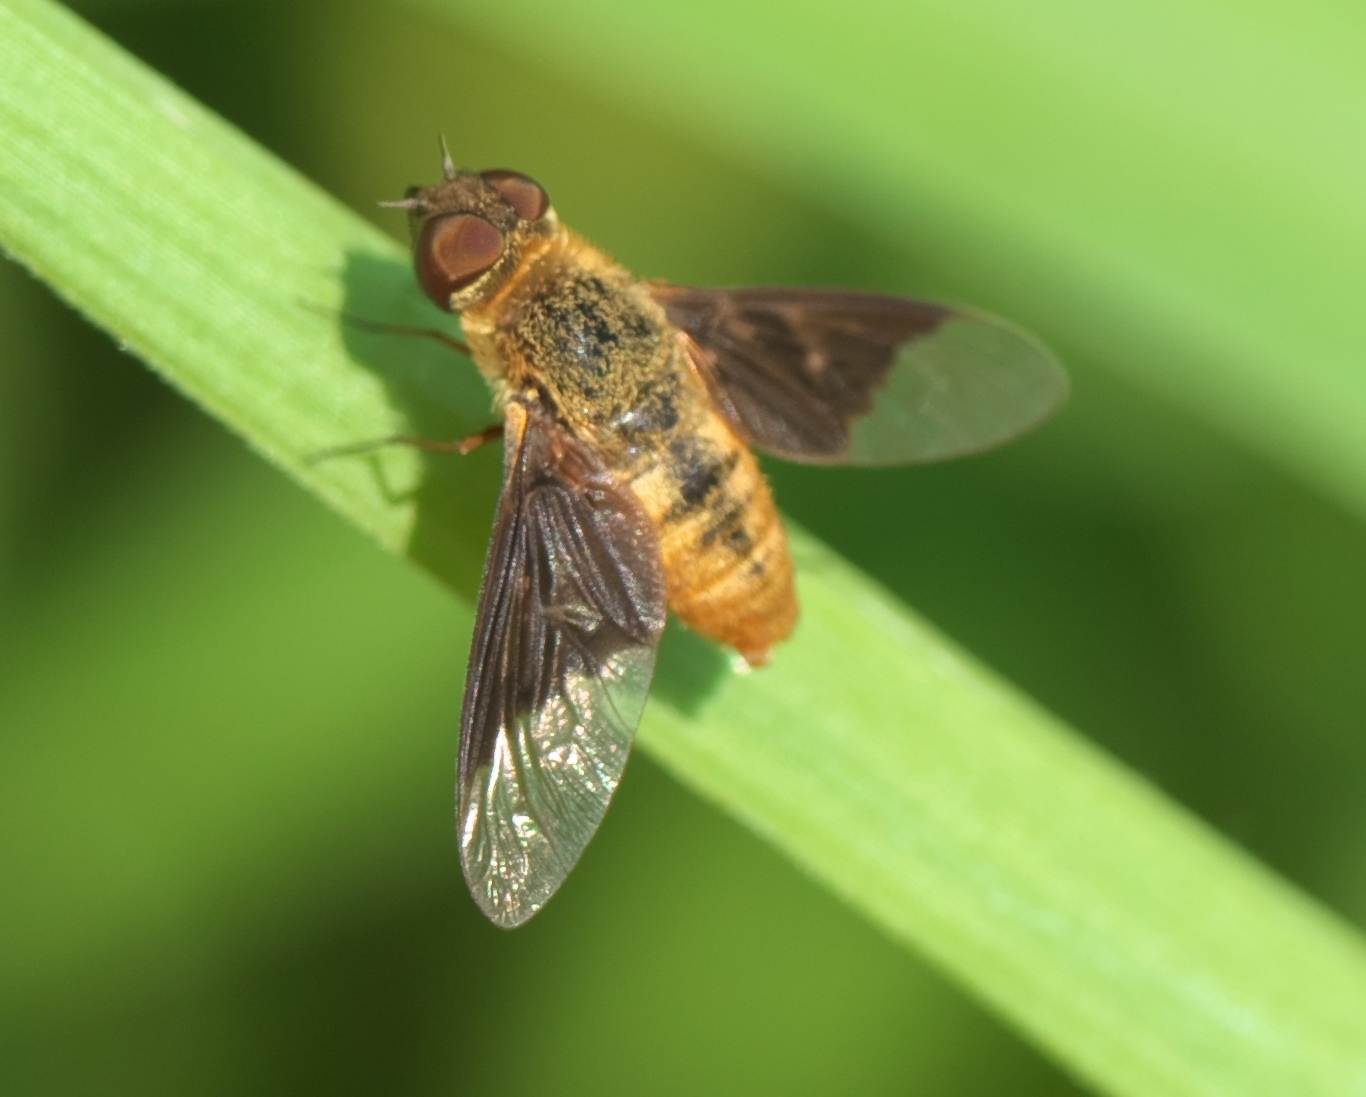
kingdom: Animalia
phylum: Arthropoda
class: Insecta
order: Diptera
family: Bombyliidae
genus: Chrysanthrax
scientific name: Chrysanthrax cypris
